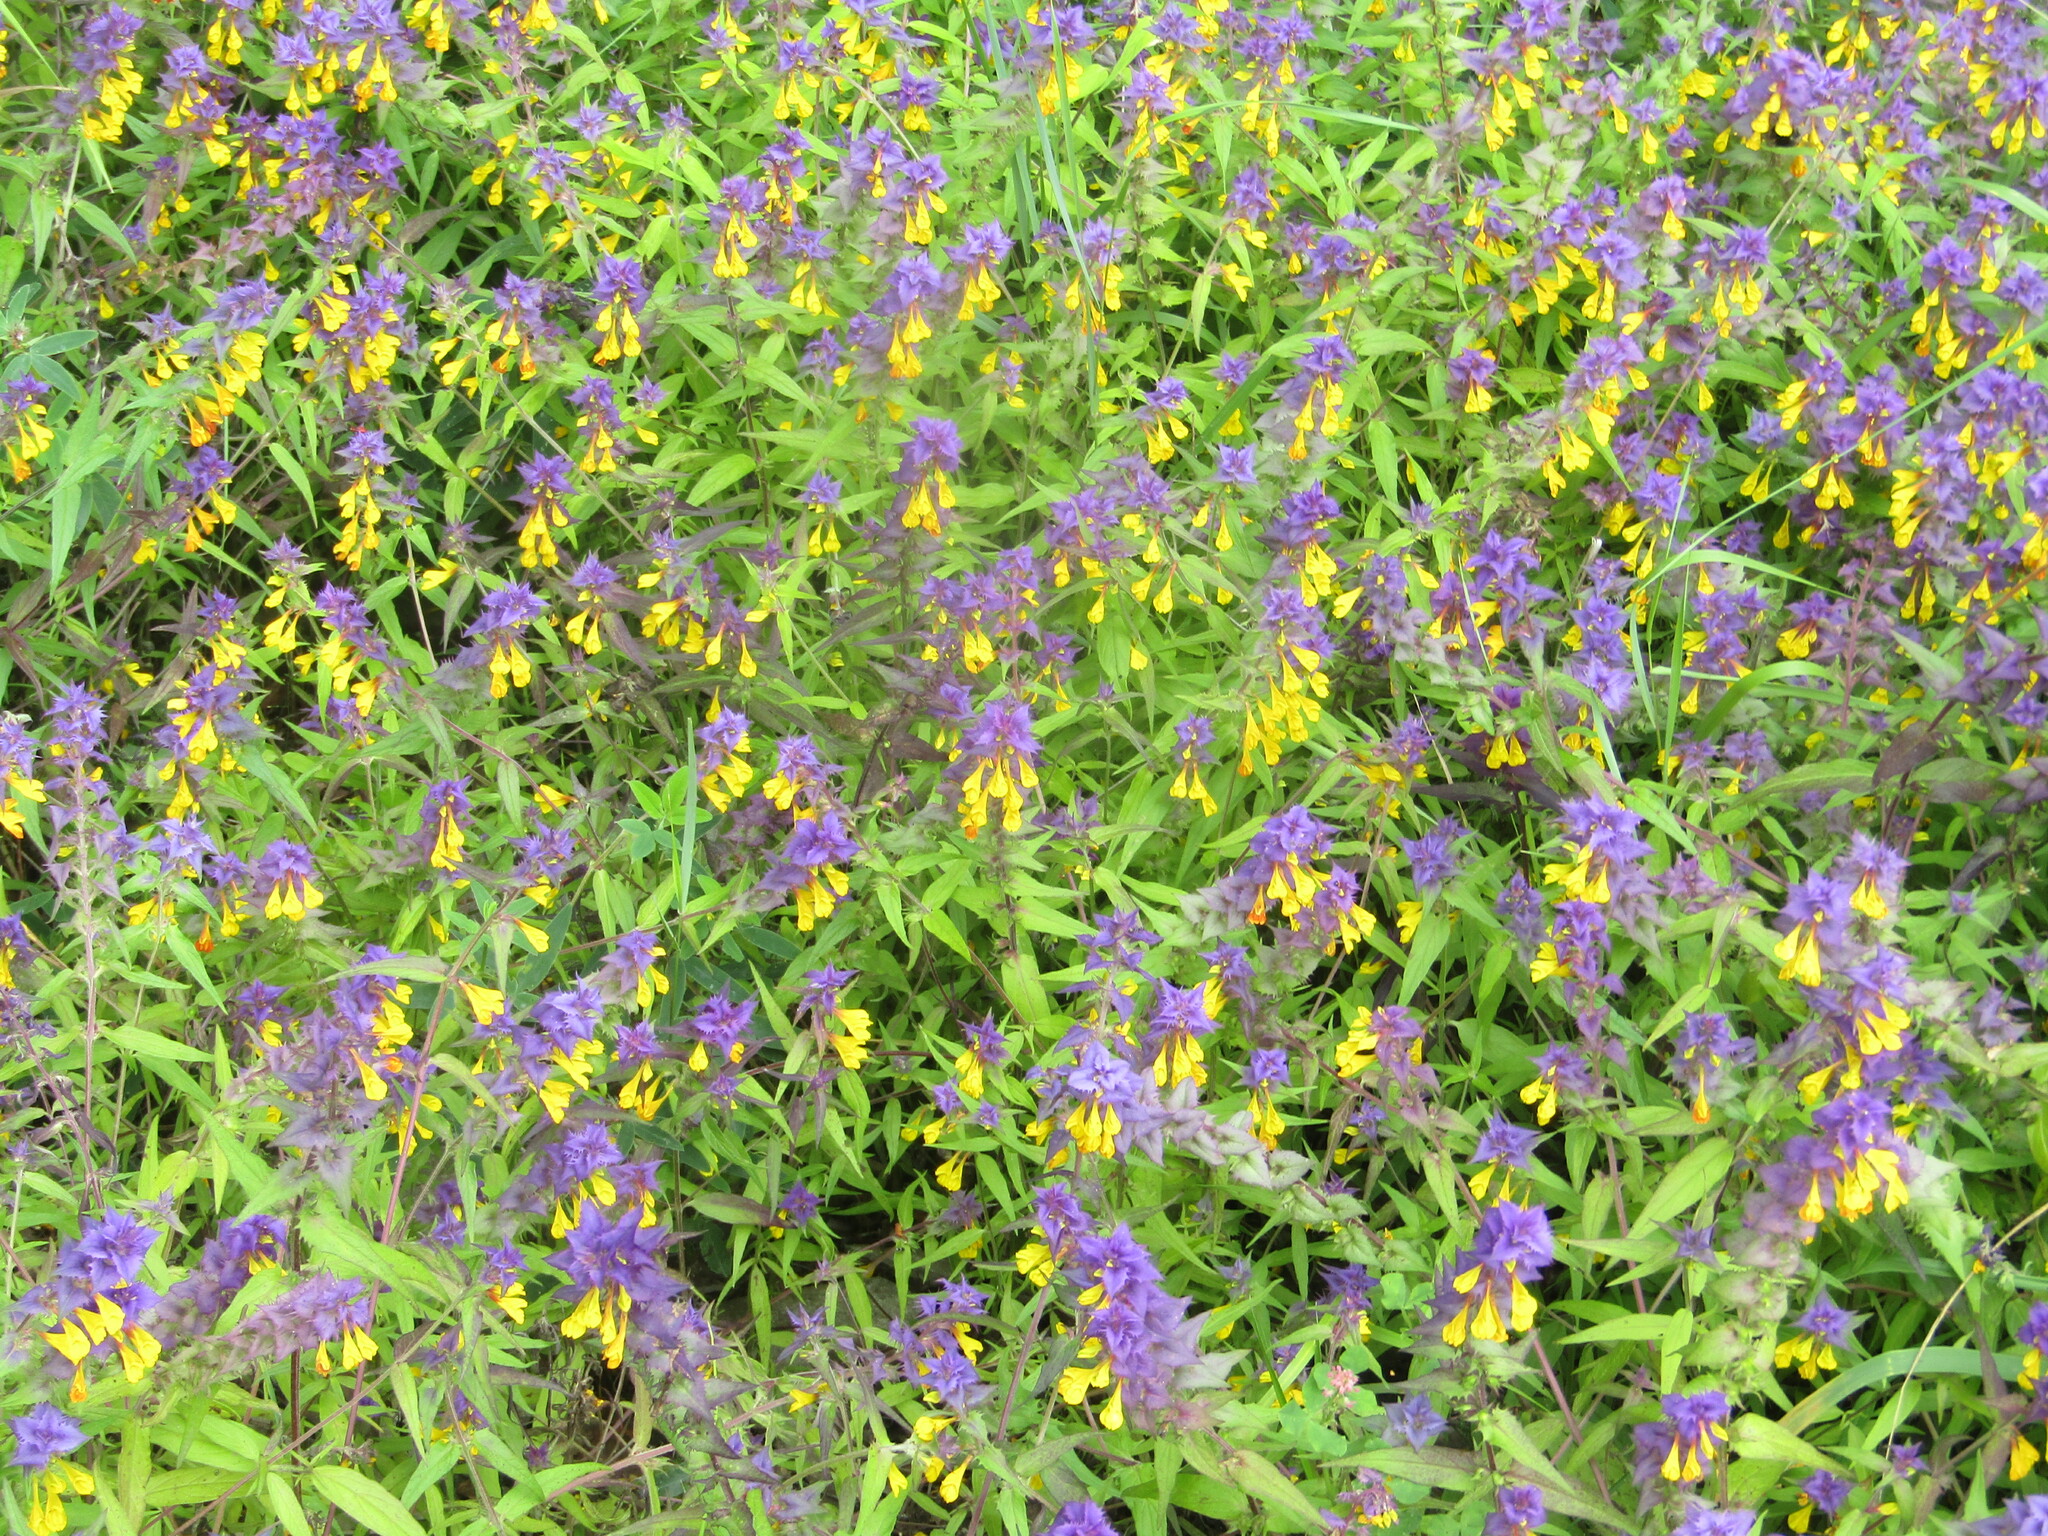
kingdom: Plantae
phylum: Tracheophyta
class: Magnoliopsida
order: Lamiales
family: Orobanchaceae
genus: Melampyrum
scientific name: Melampyrum nemorosum
